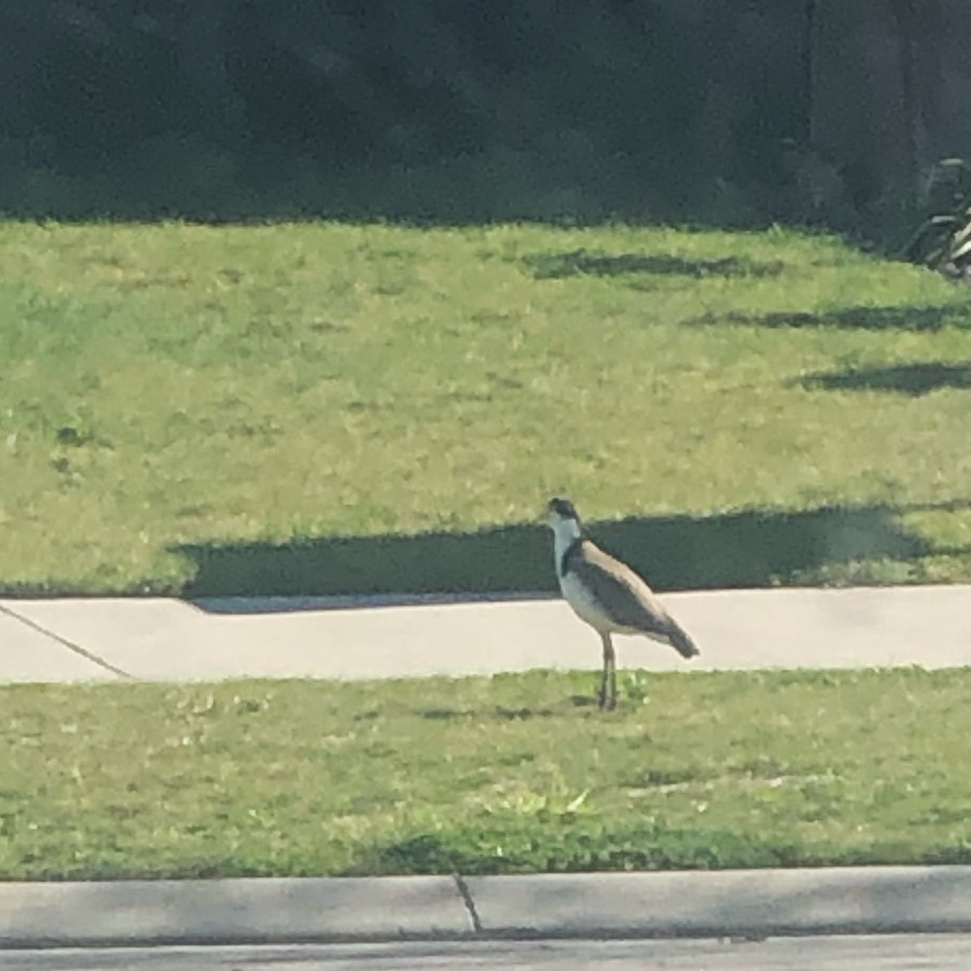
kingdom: Animalia
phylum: Chordata
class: Aves
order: Charadriiformes
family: Charadriidae
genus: Vanellus
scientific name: Vanellus miles
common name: Masked lapwing
